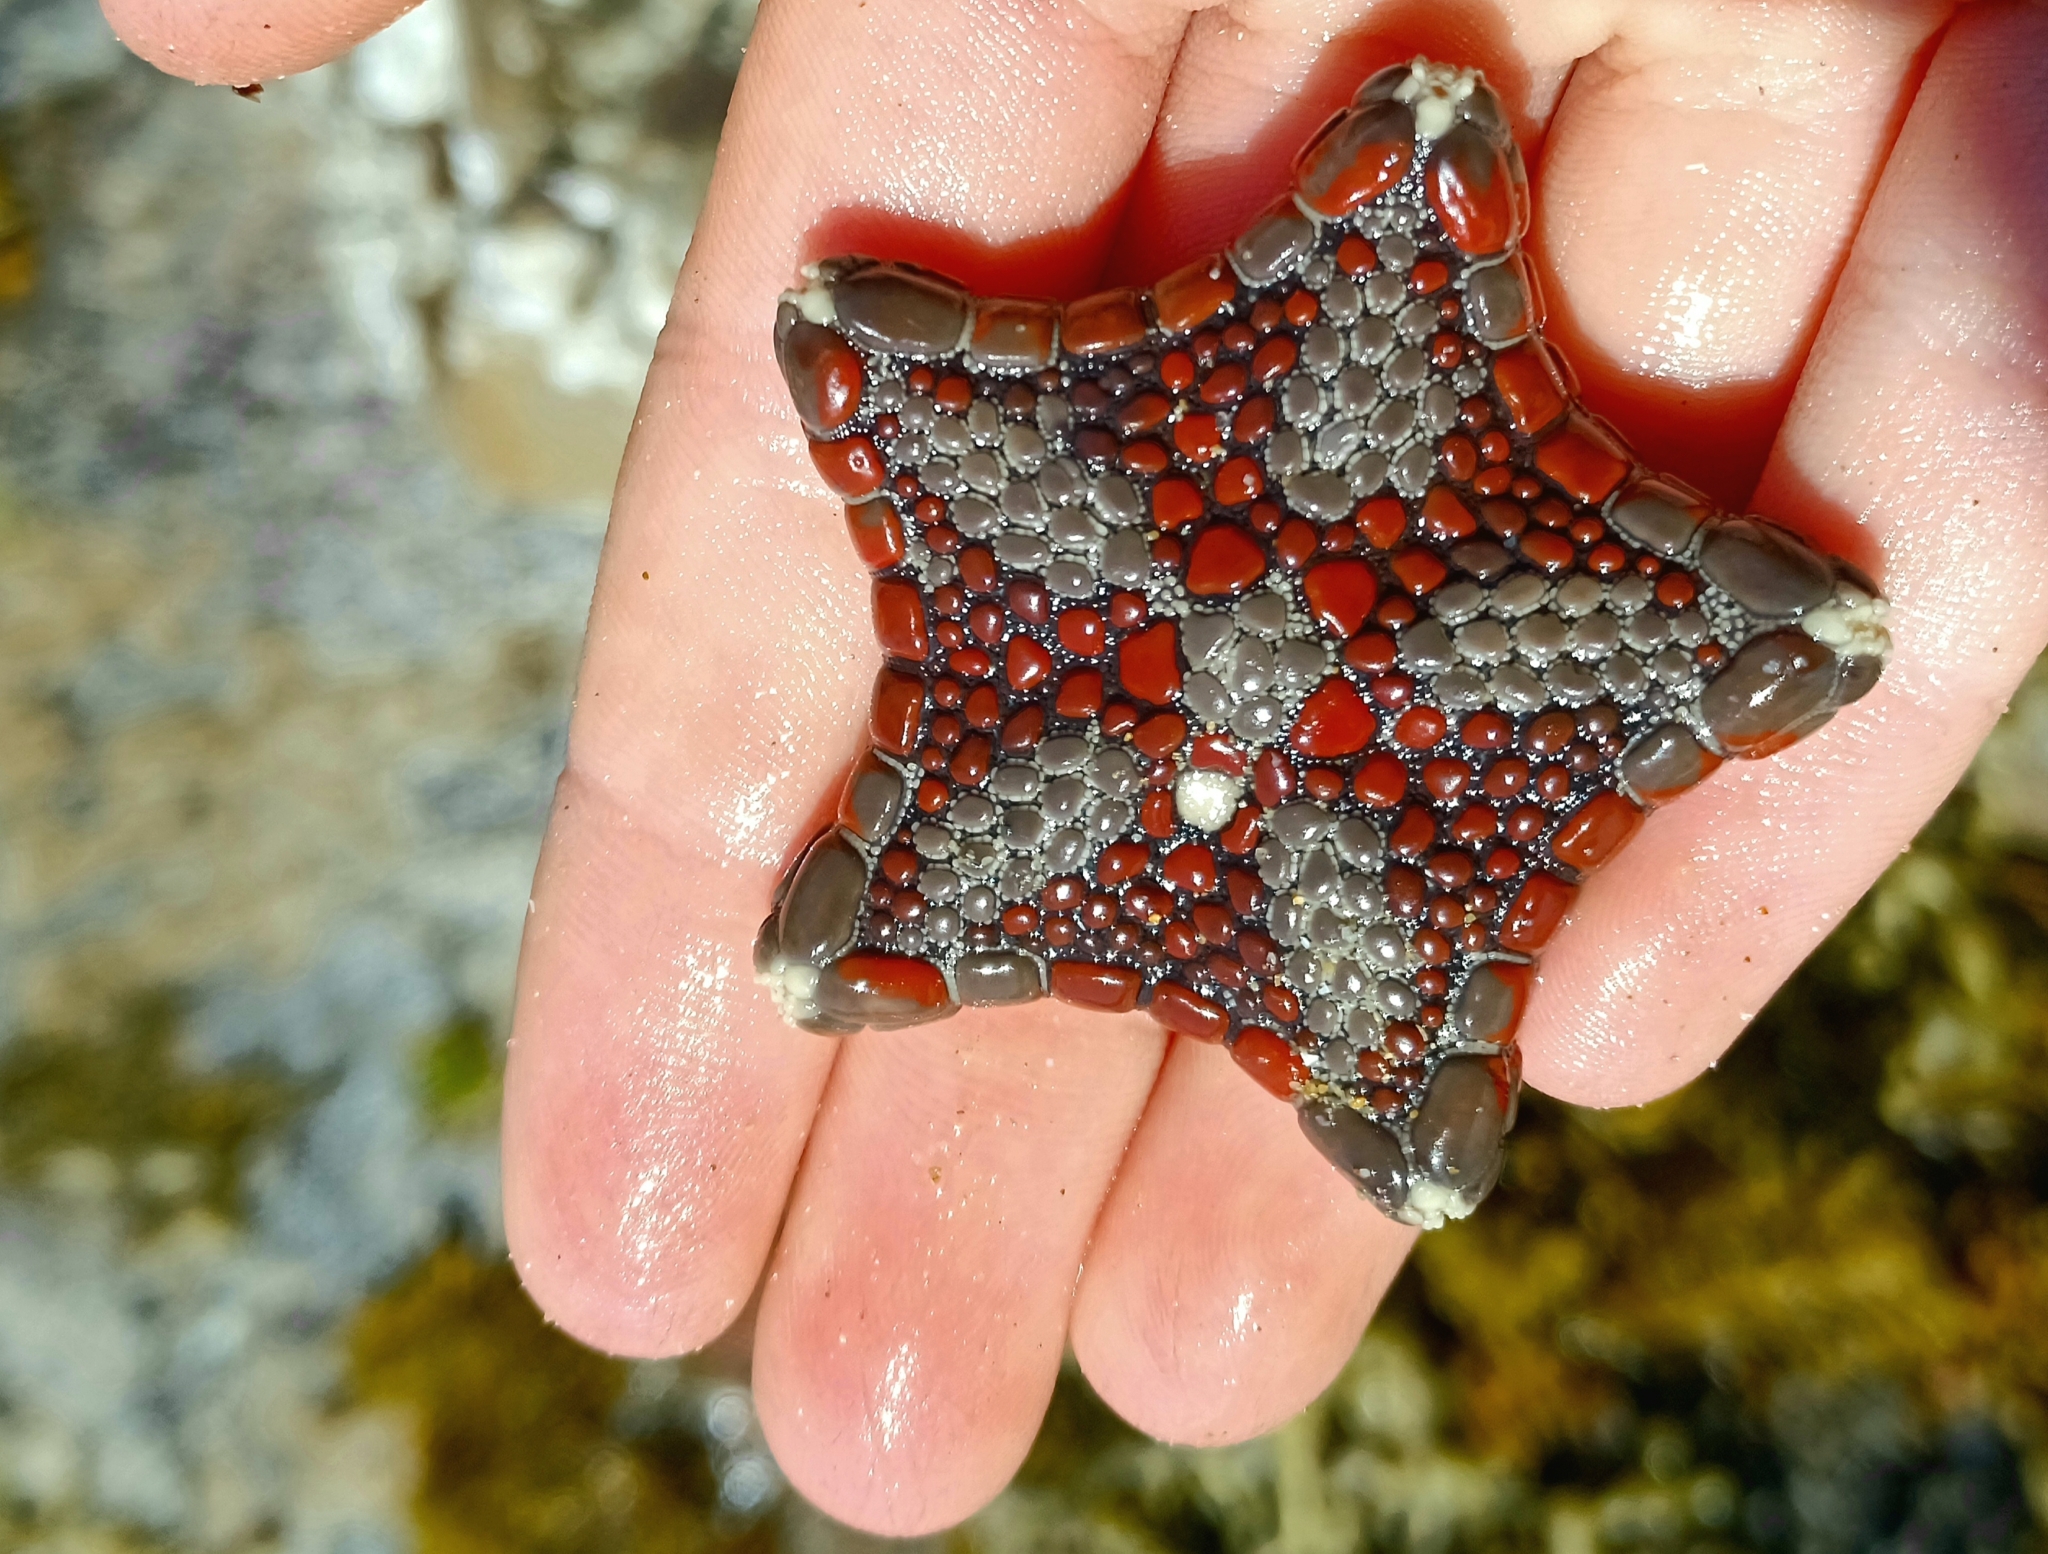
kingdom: Animalia
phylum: Echinodermata
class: Asteroidea
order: Valvatida
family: Goniasteridae
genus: Tosia
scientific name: Tosia neossia
